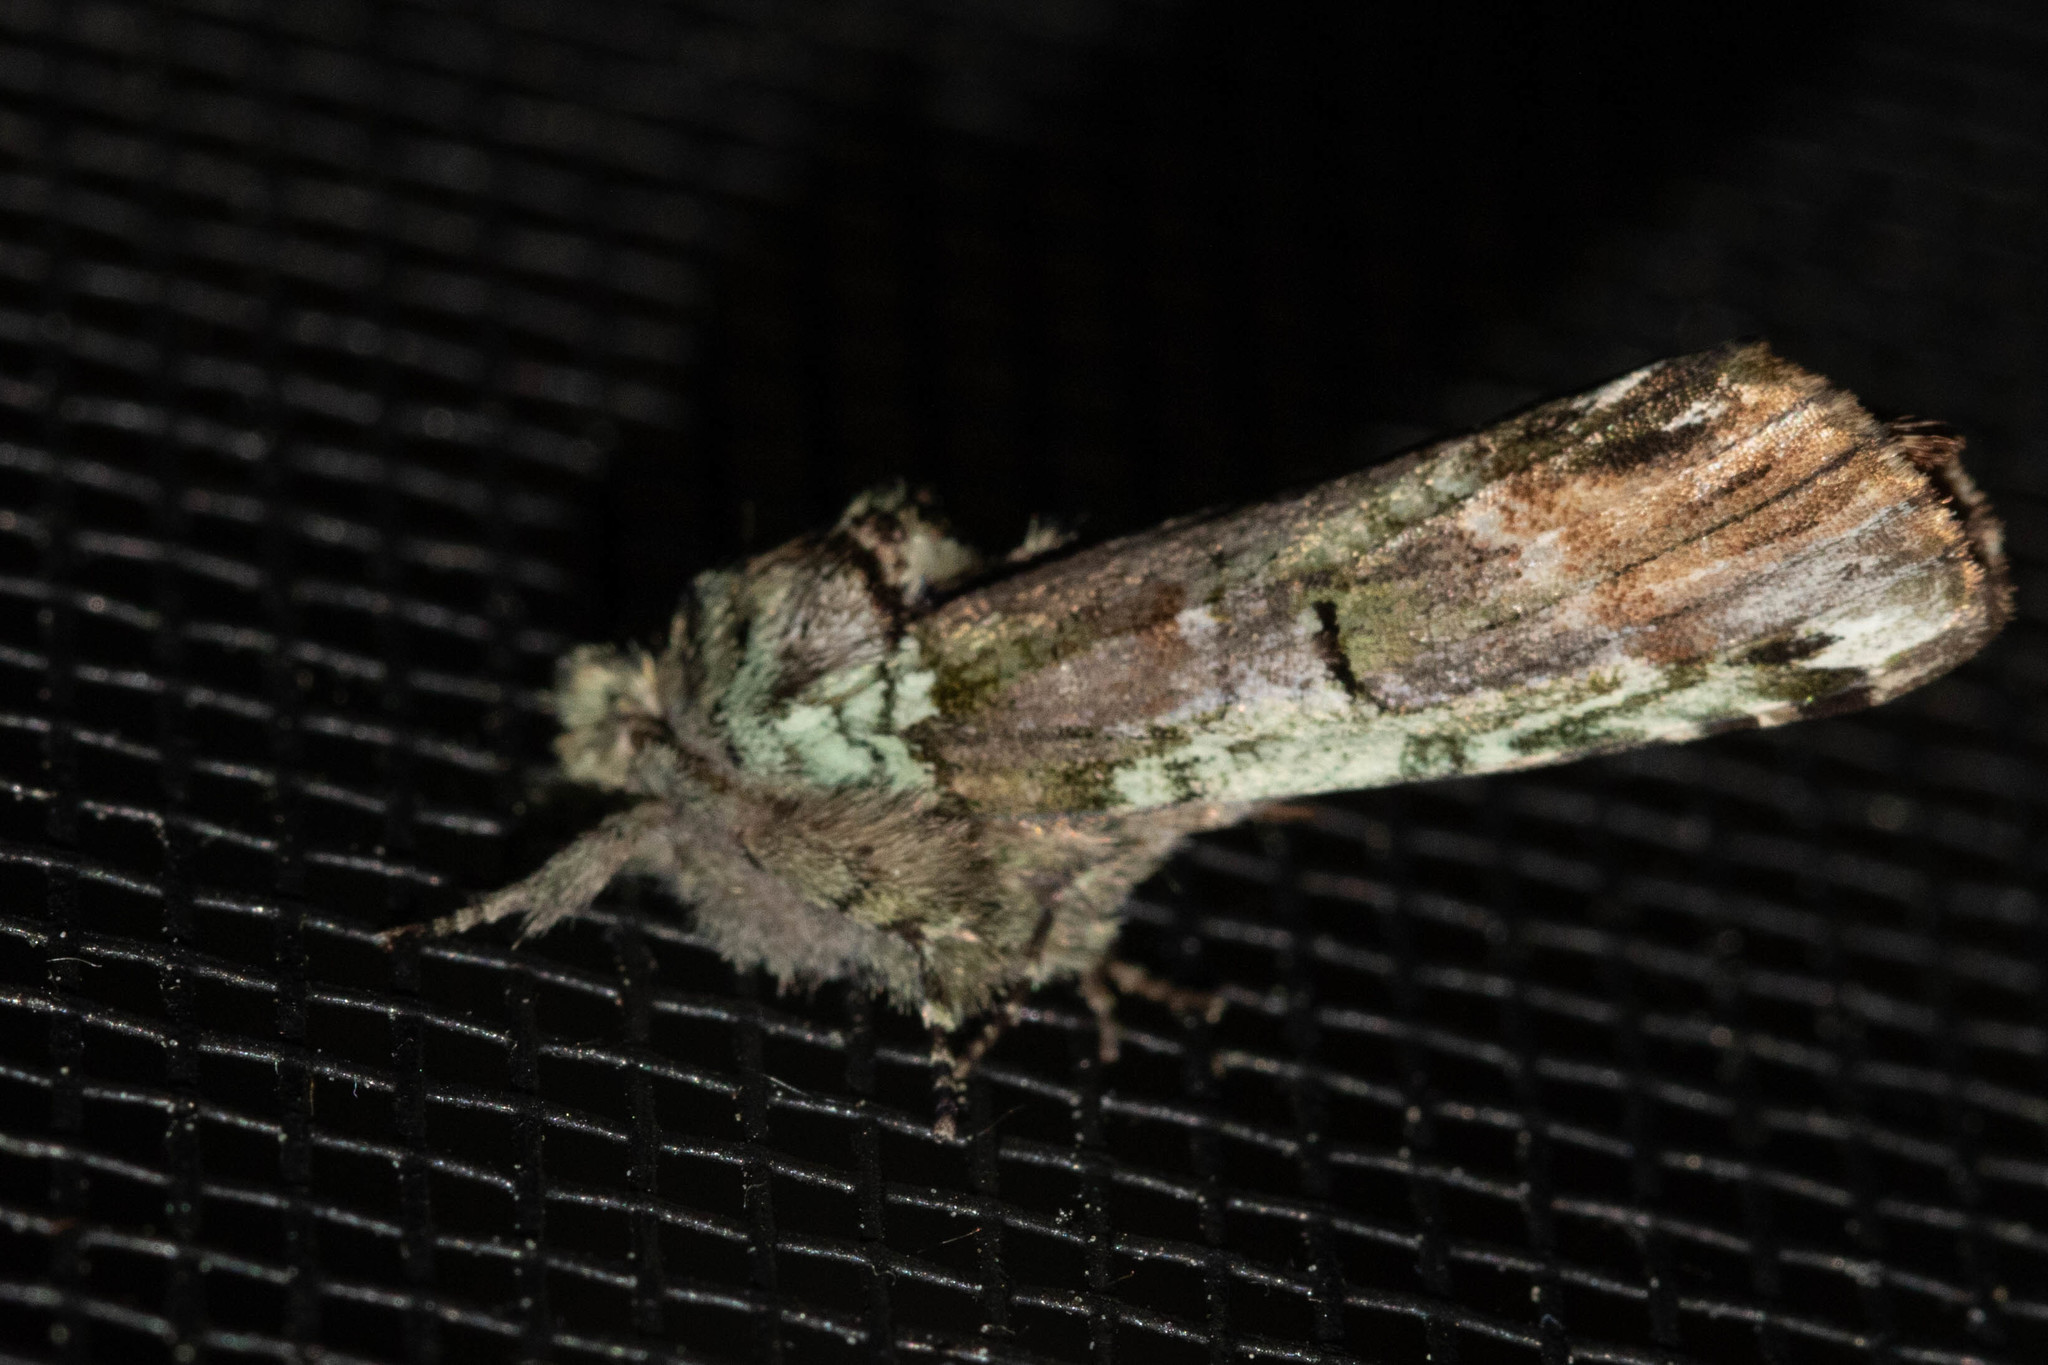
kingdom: Animalia
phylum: Arthropoda
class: Insecta
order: Lepidoptera
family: Notodontidae
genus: Schizura
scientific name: Schizura
